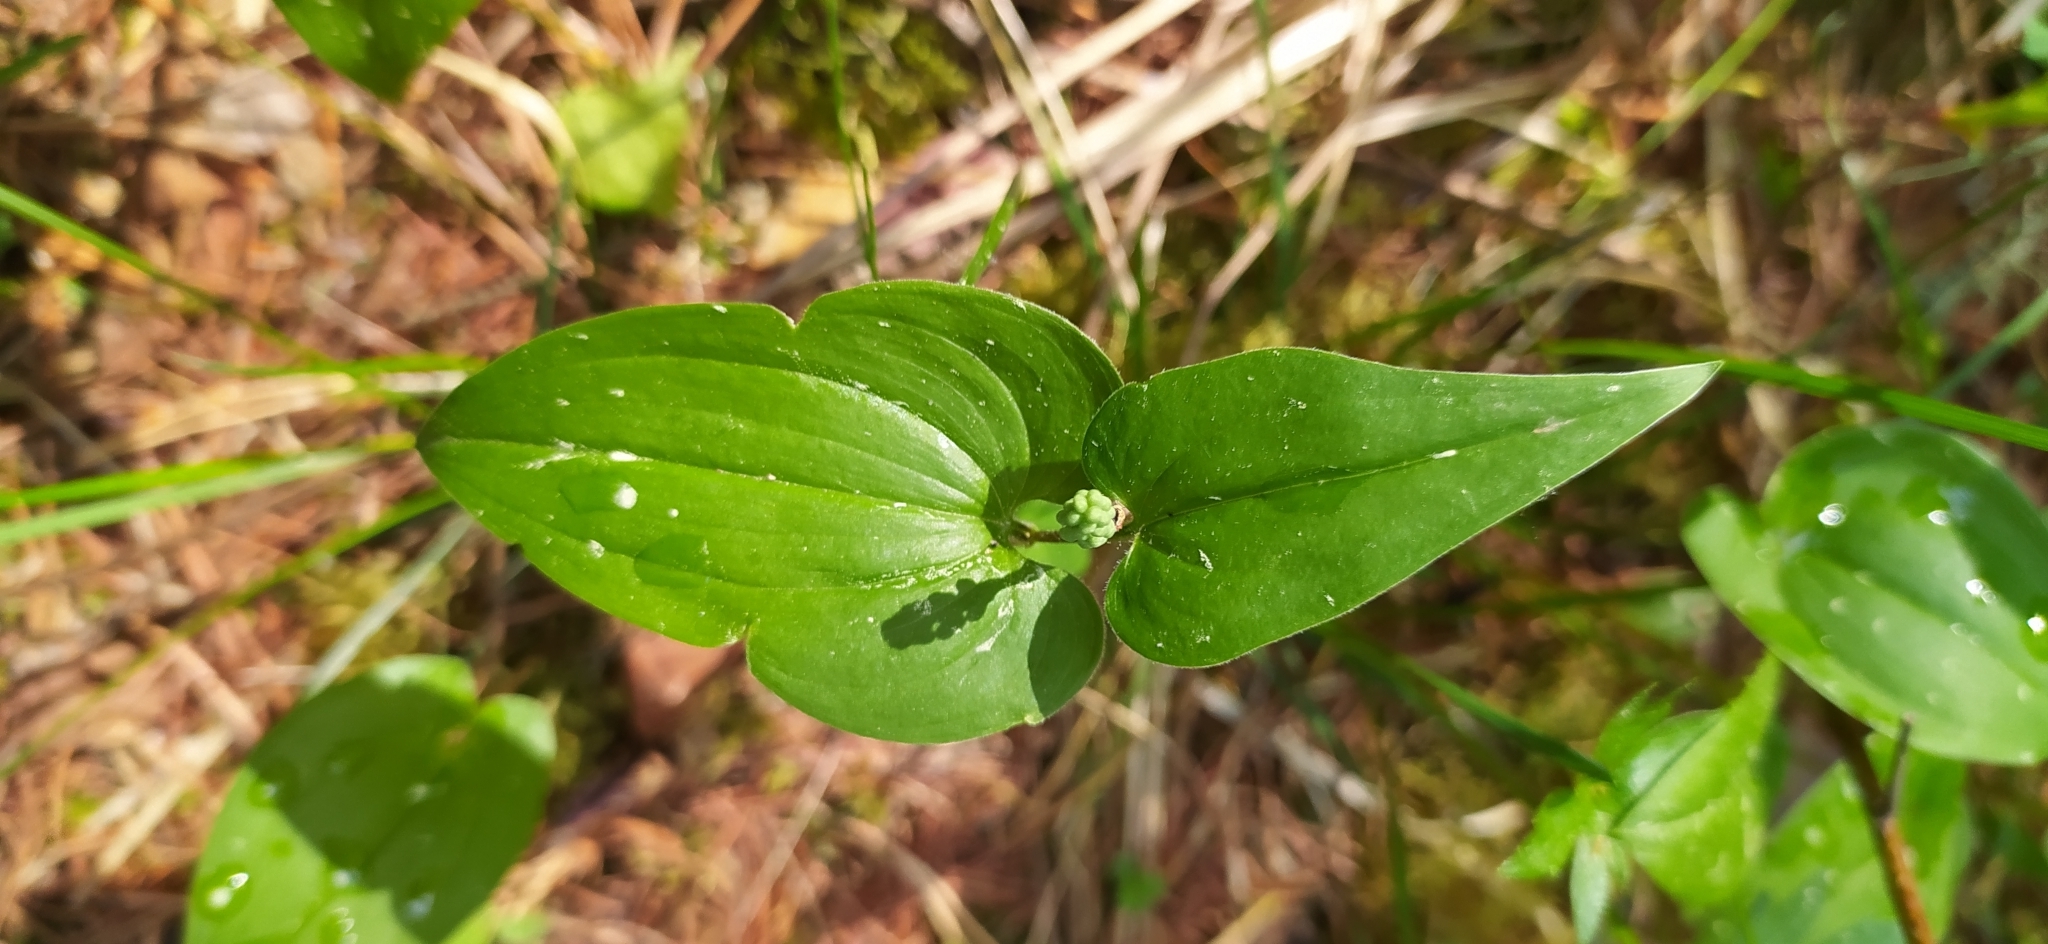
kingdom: Plantae
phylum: Tracheophyta
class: Liliopsida
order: Asparagales
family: Asparagaceae
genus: Maianthemum
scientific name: Maianthemum bifolium
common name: May lily
